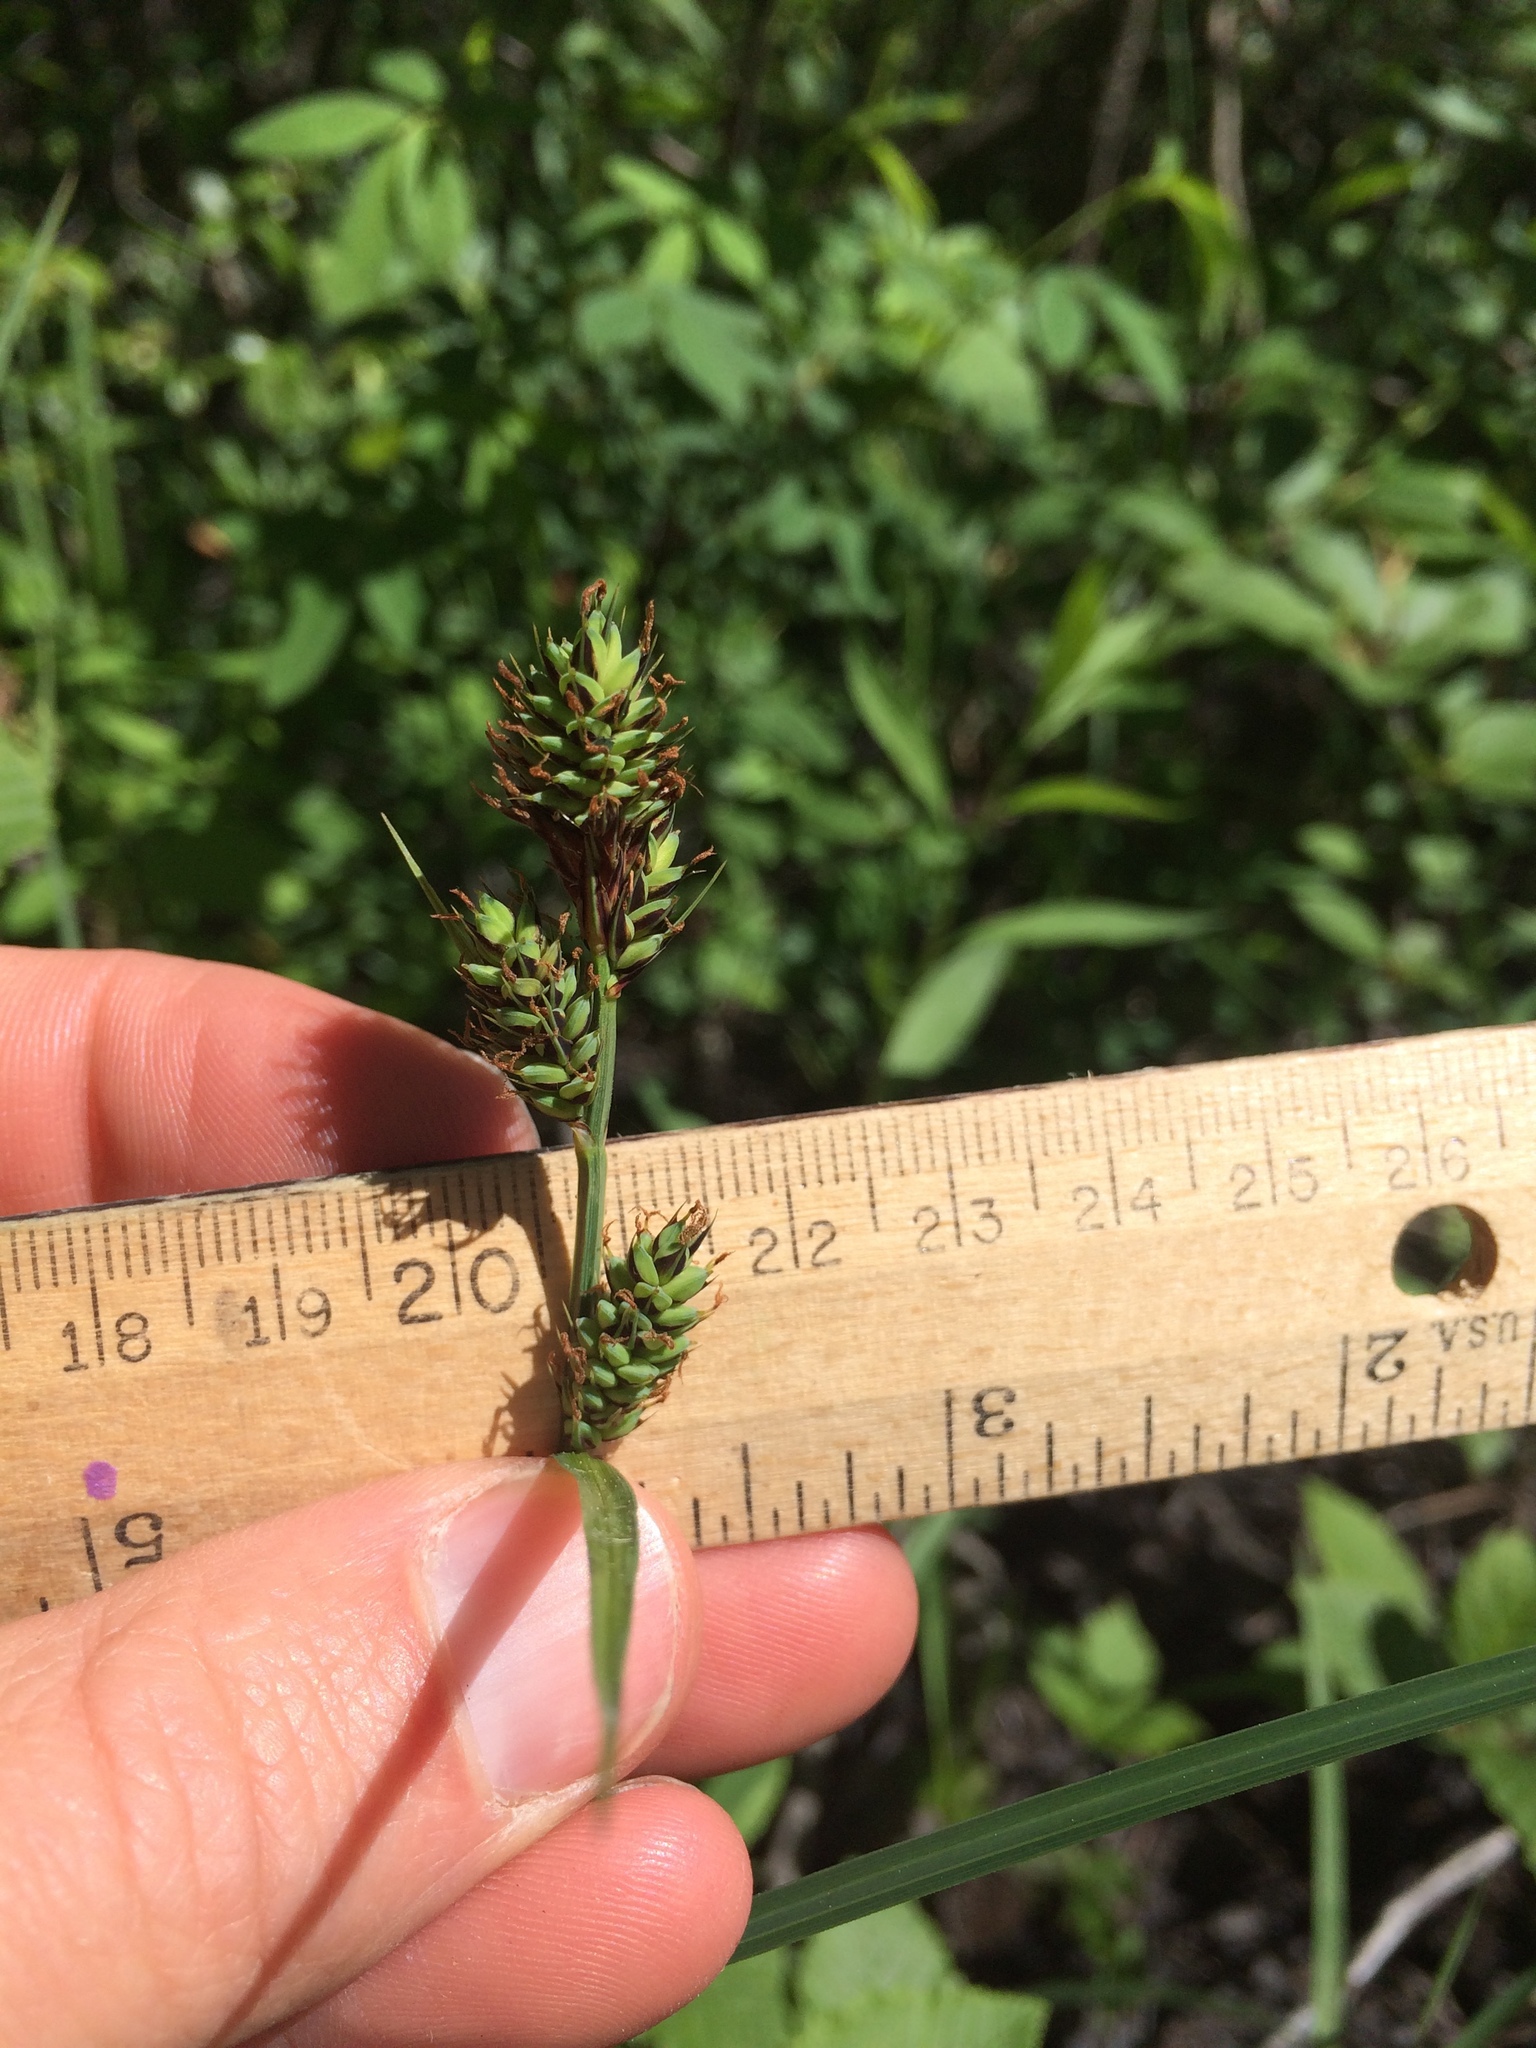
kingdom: Plantae
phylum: Tracheophyta
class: Liliopsida
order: Poales
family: Cyperaceae
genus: Carex
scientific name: Carex buxbaumii
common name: Club sedge
